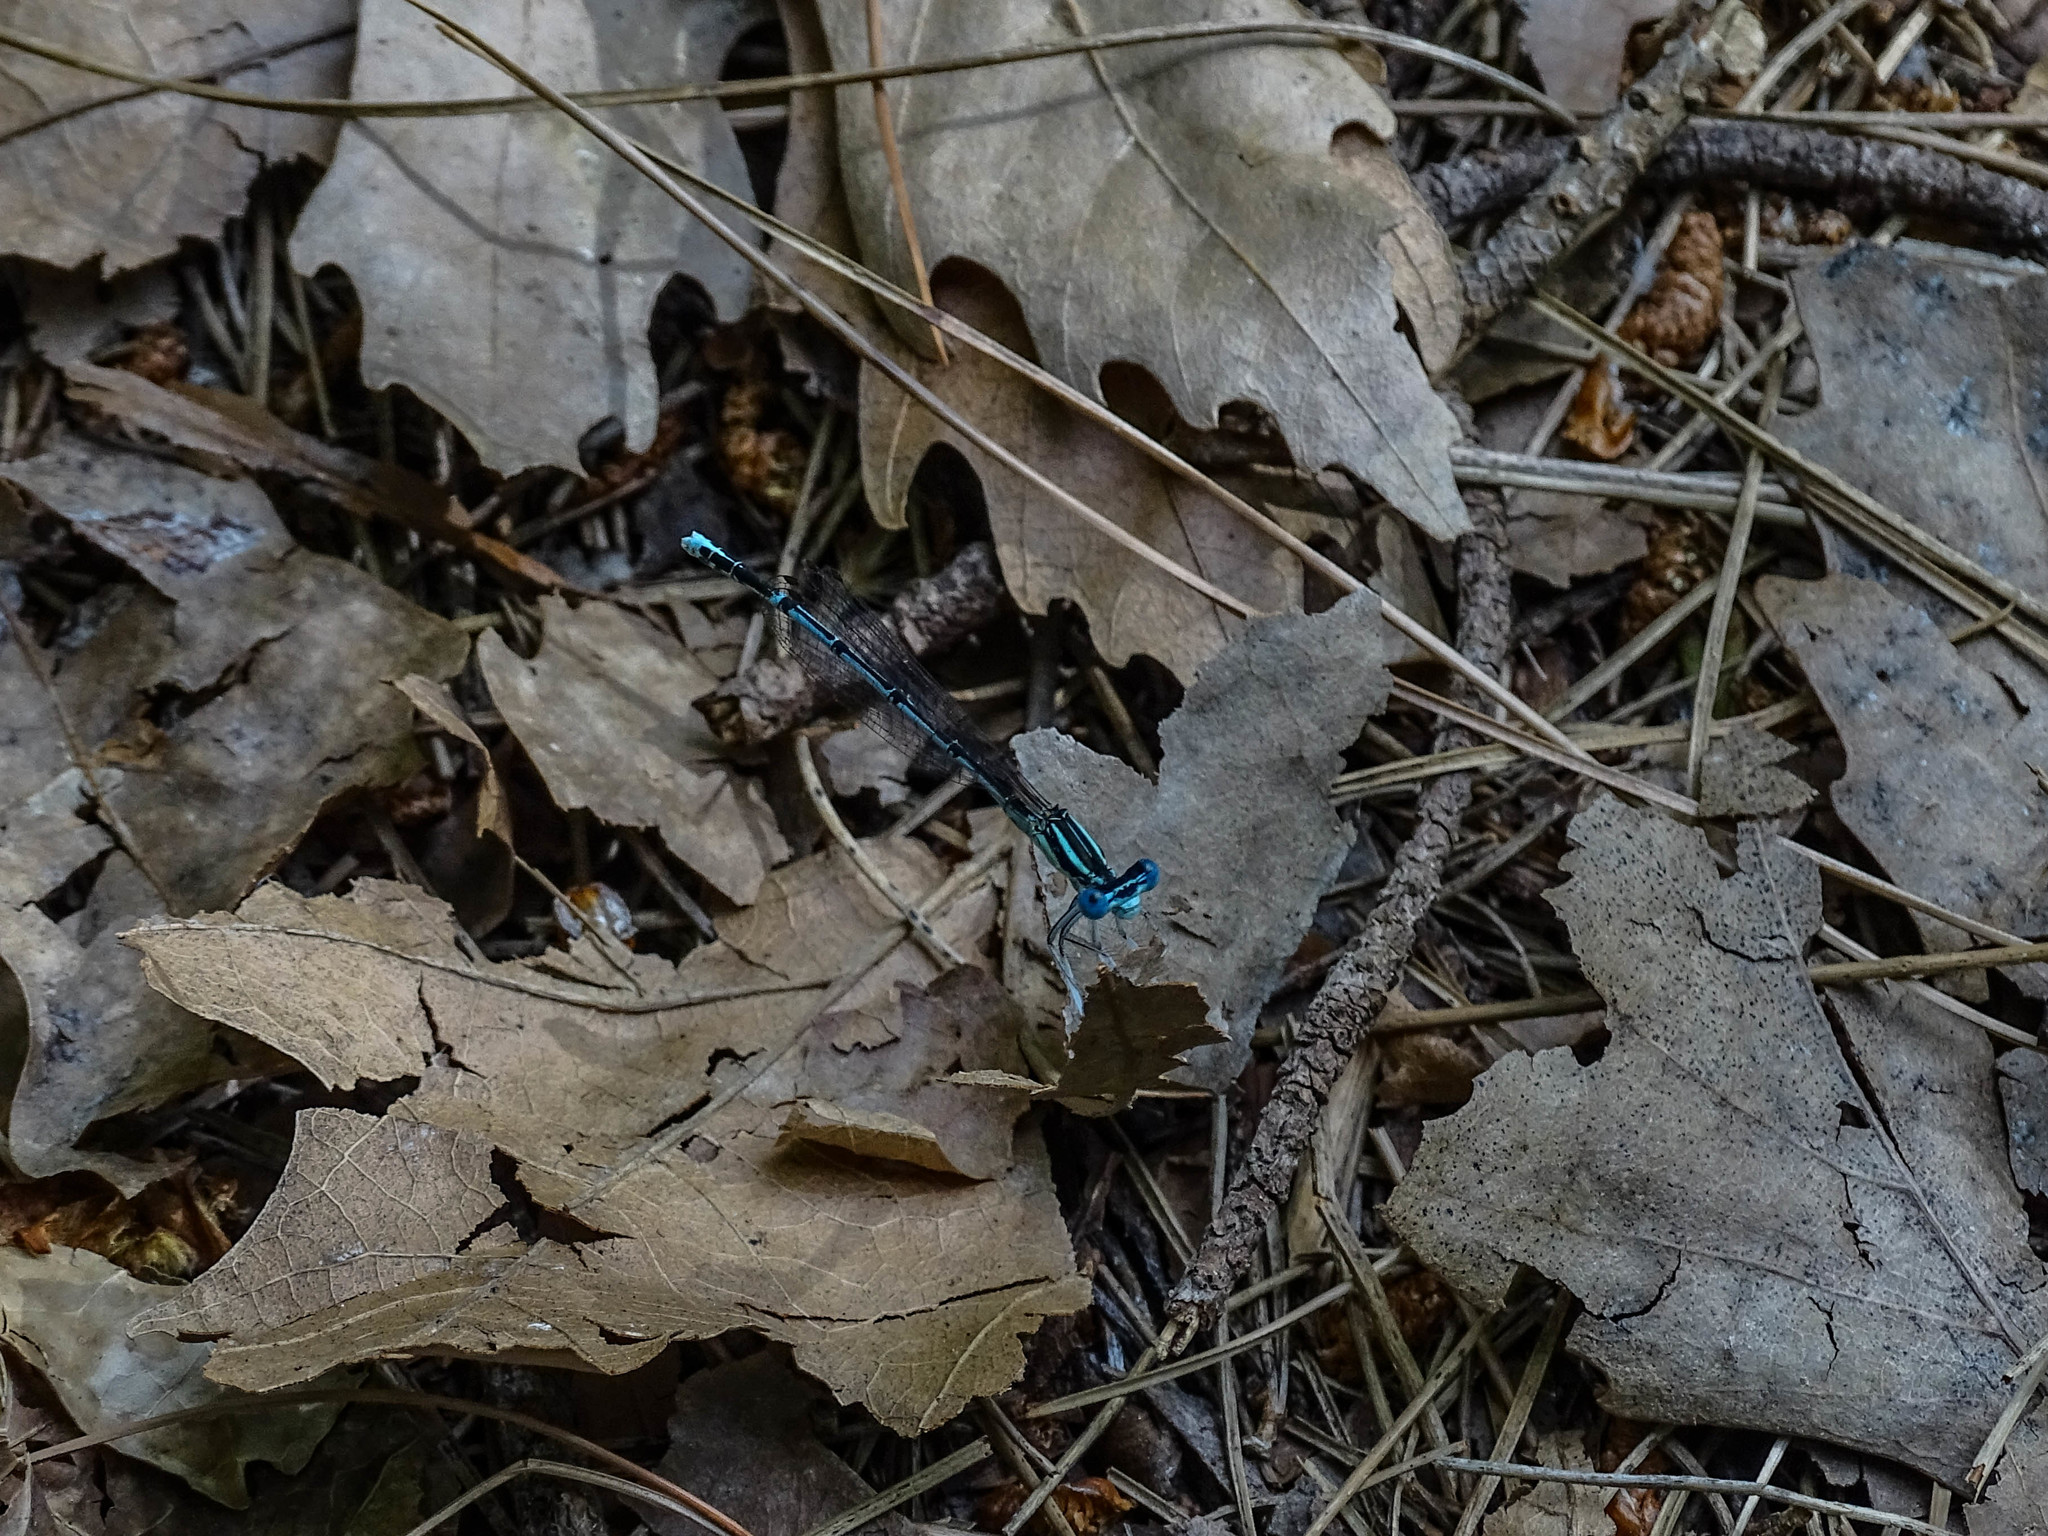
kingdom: Animalia
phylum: Arthropoda
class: Insecta
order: Odonata
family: Platycnemididae
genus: Platycnemis
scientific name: Platycnemis pennipes
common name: White-legged damselfly
